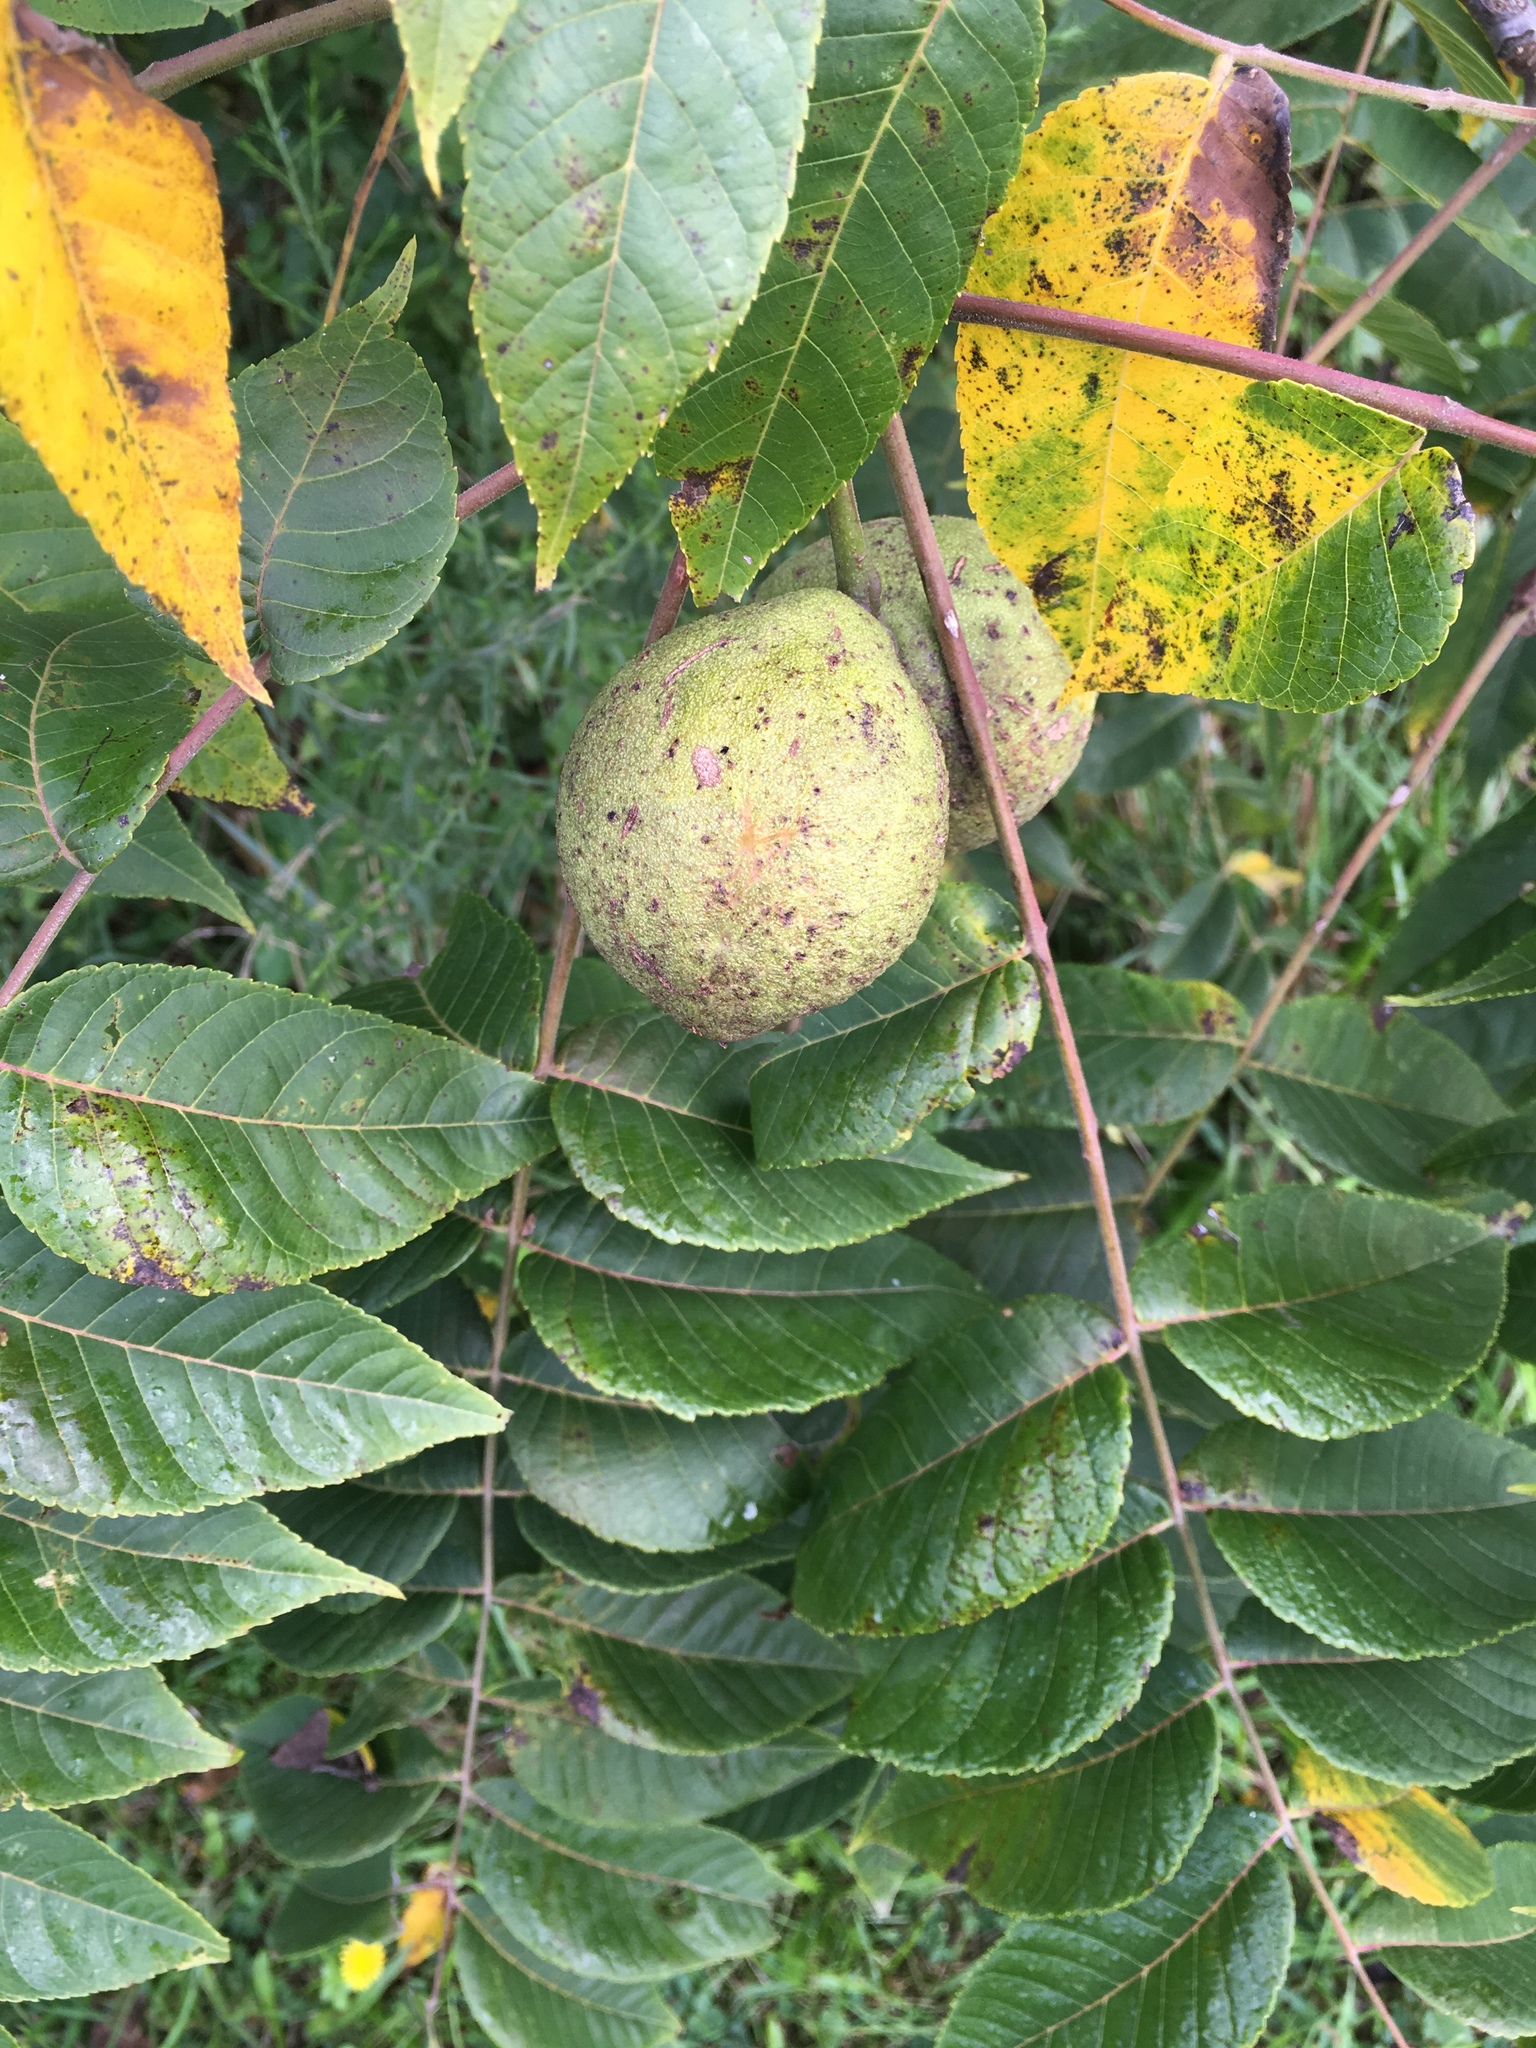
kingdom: Plantae
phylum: Tracheophyta
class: Magnoliopsida
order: Fagales
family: Juglandaceae
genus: Juglans
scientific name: Juglans nigra
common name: Black walnut
